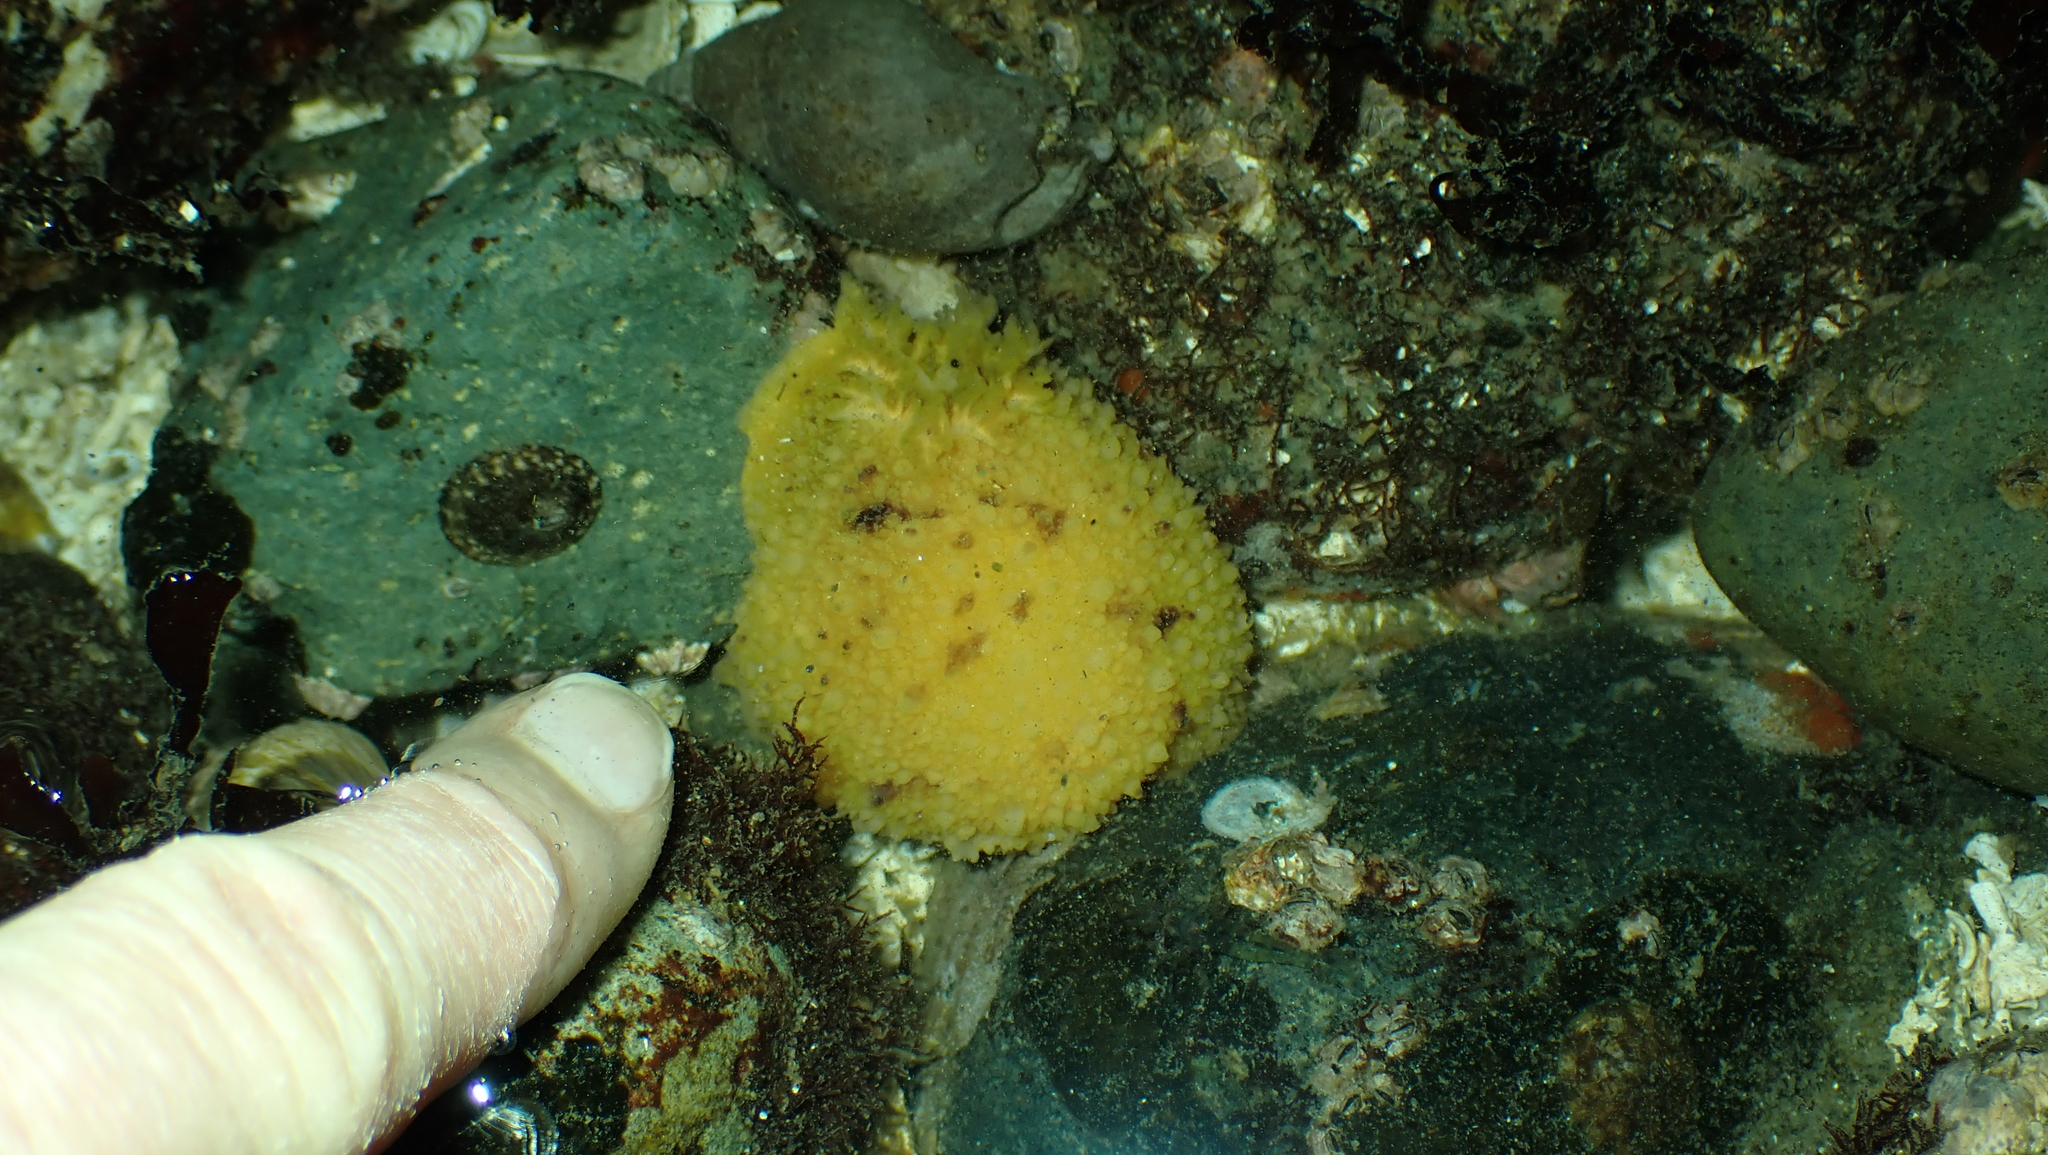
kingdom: Animalia
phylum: Mollusca
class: Gastropoda
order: Nudibranchia
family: Dorididae
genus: Doris
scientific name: Doris montereyensis
